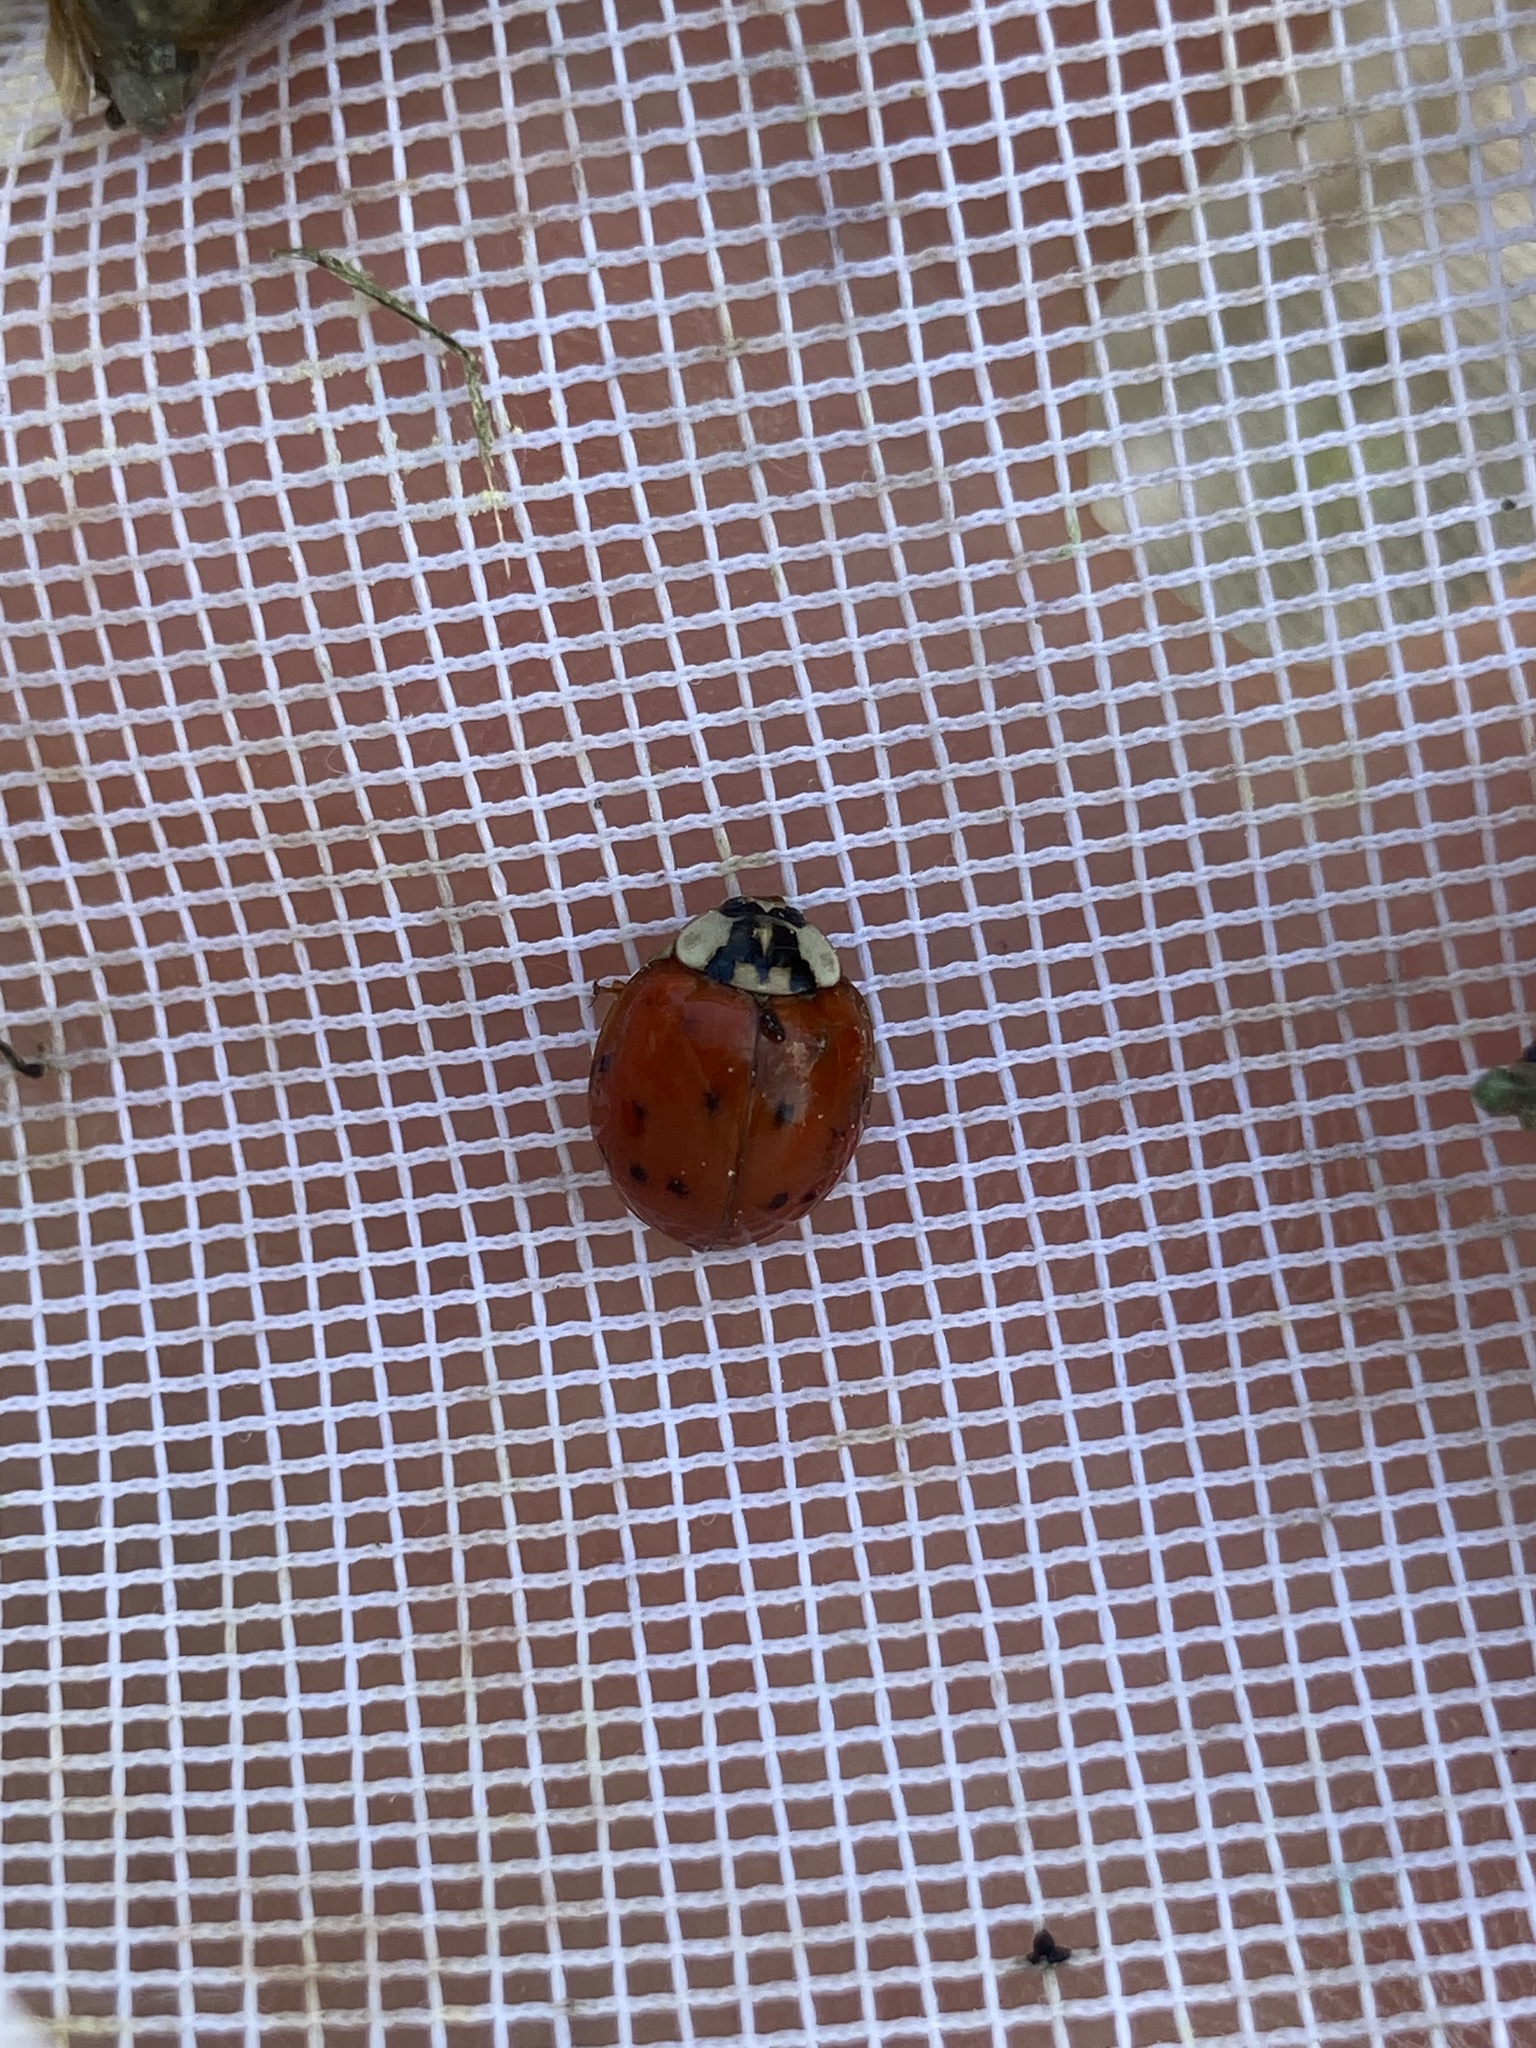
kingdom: Animalia
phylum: Arthropoda
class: Insecta
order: Coleoptera
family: Coccinellidae
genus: Harmonia
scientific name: Harmonia axyridis
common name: Harlequin ladybird
